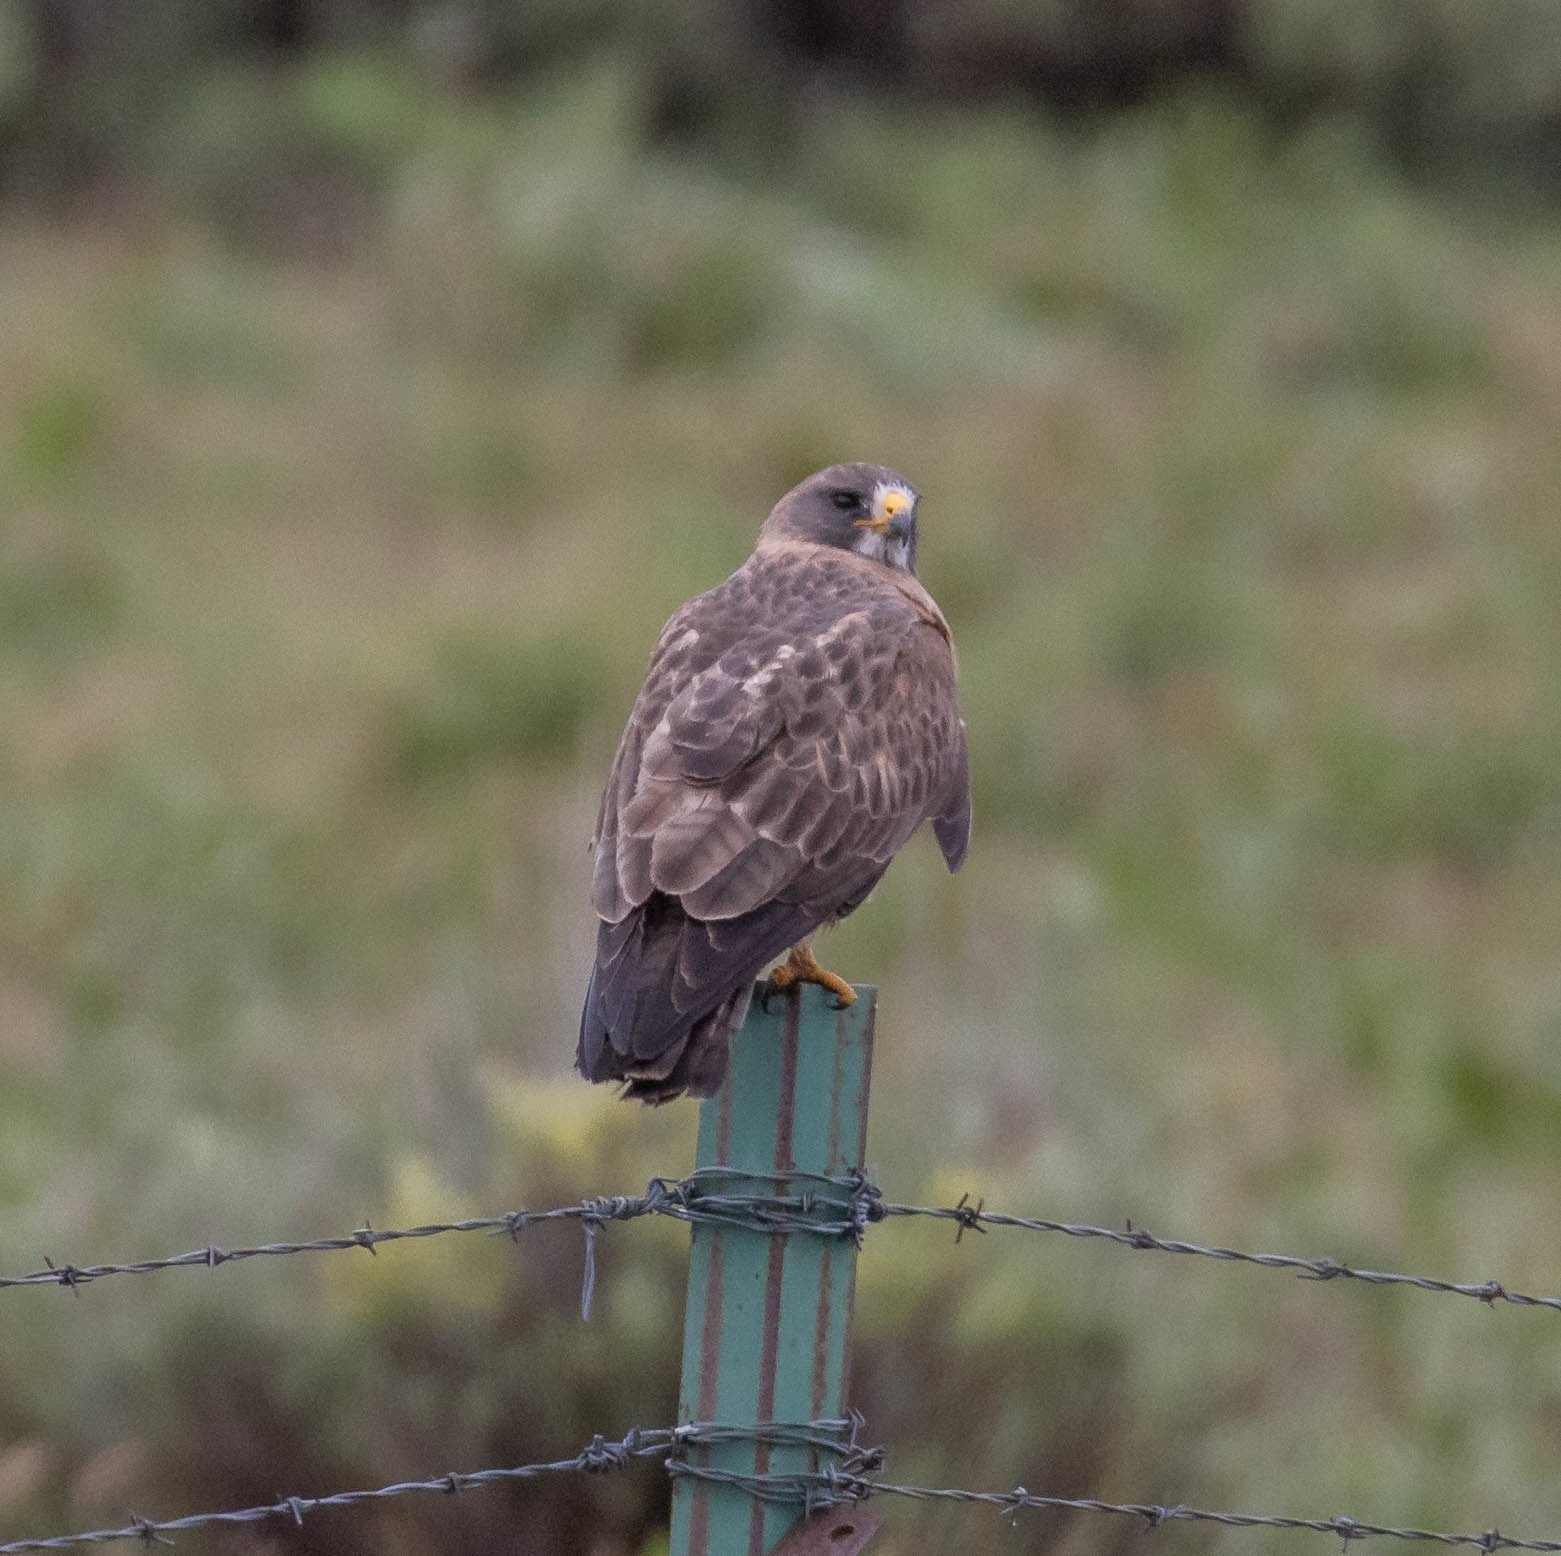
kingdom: Animalia
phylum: Chordata
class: Aves
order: Accipitriformes
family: Accipitridae
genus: Buteo
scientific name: Buteo swainsoni
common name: Swainson's hawk
